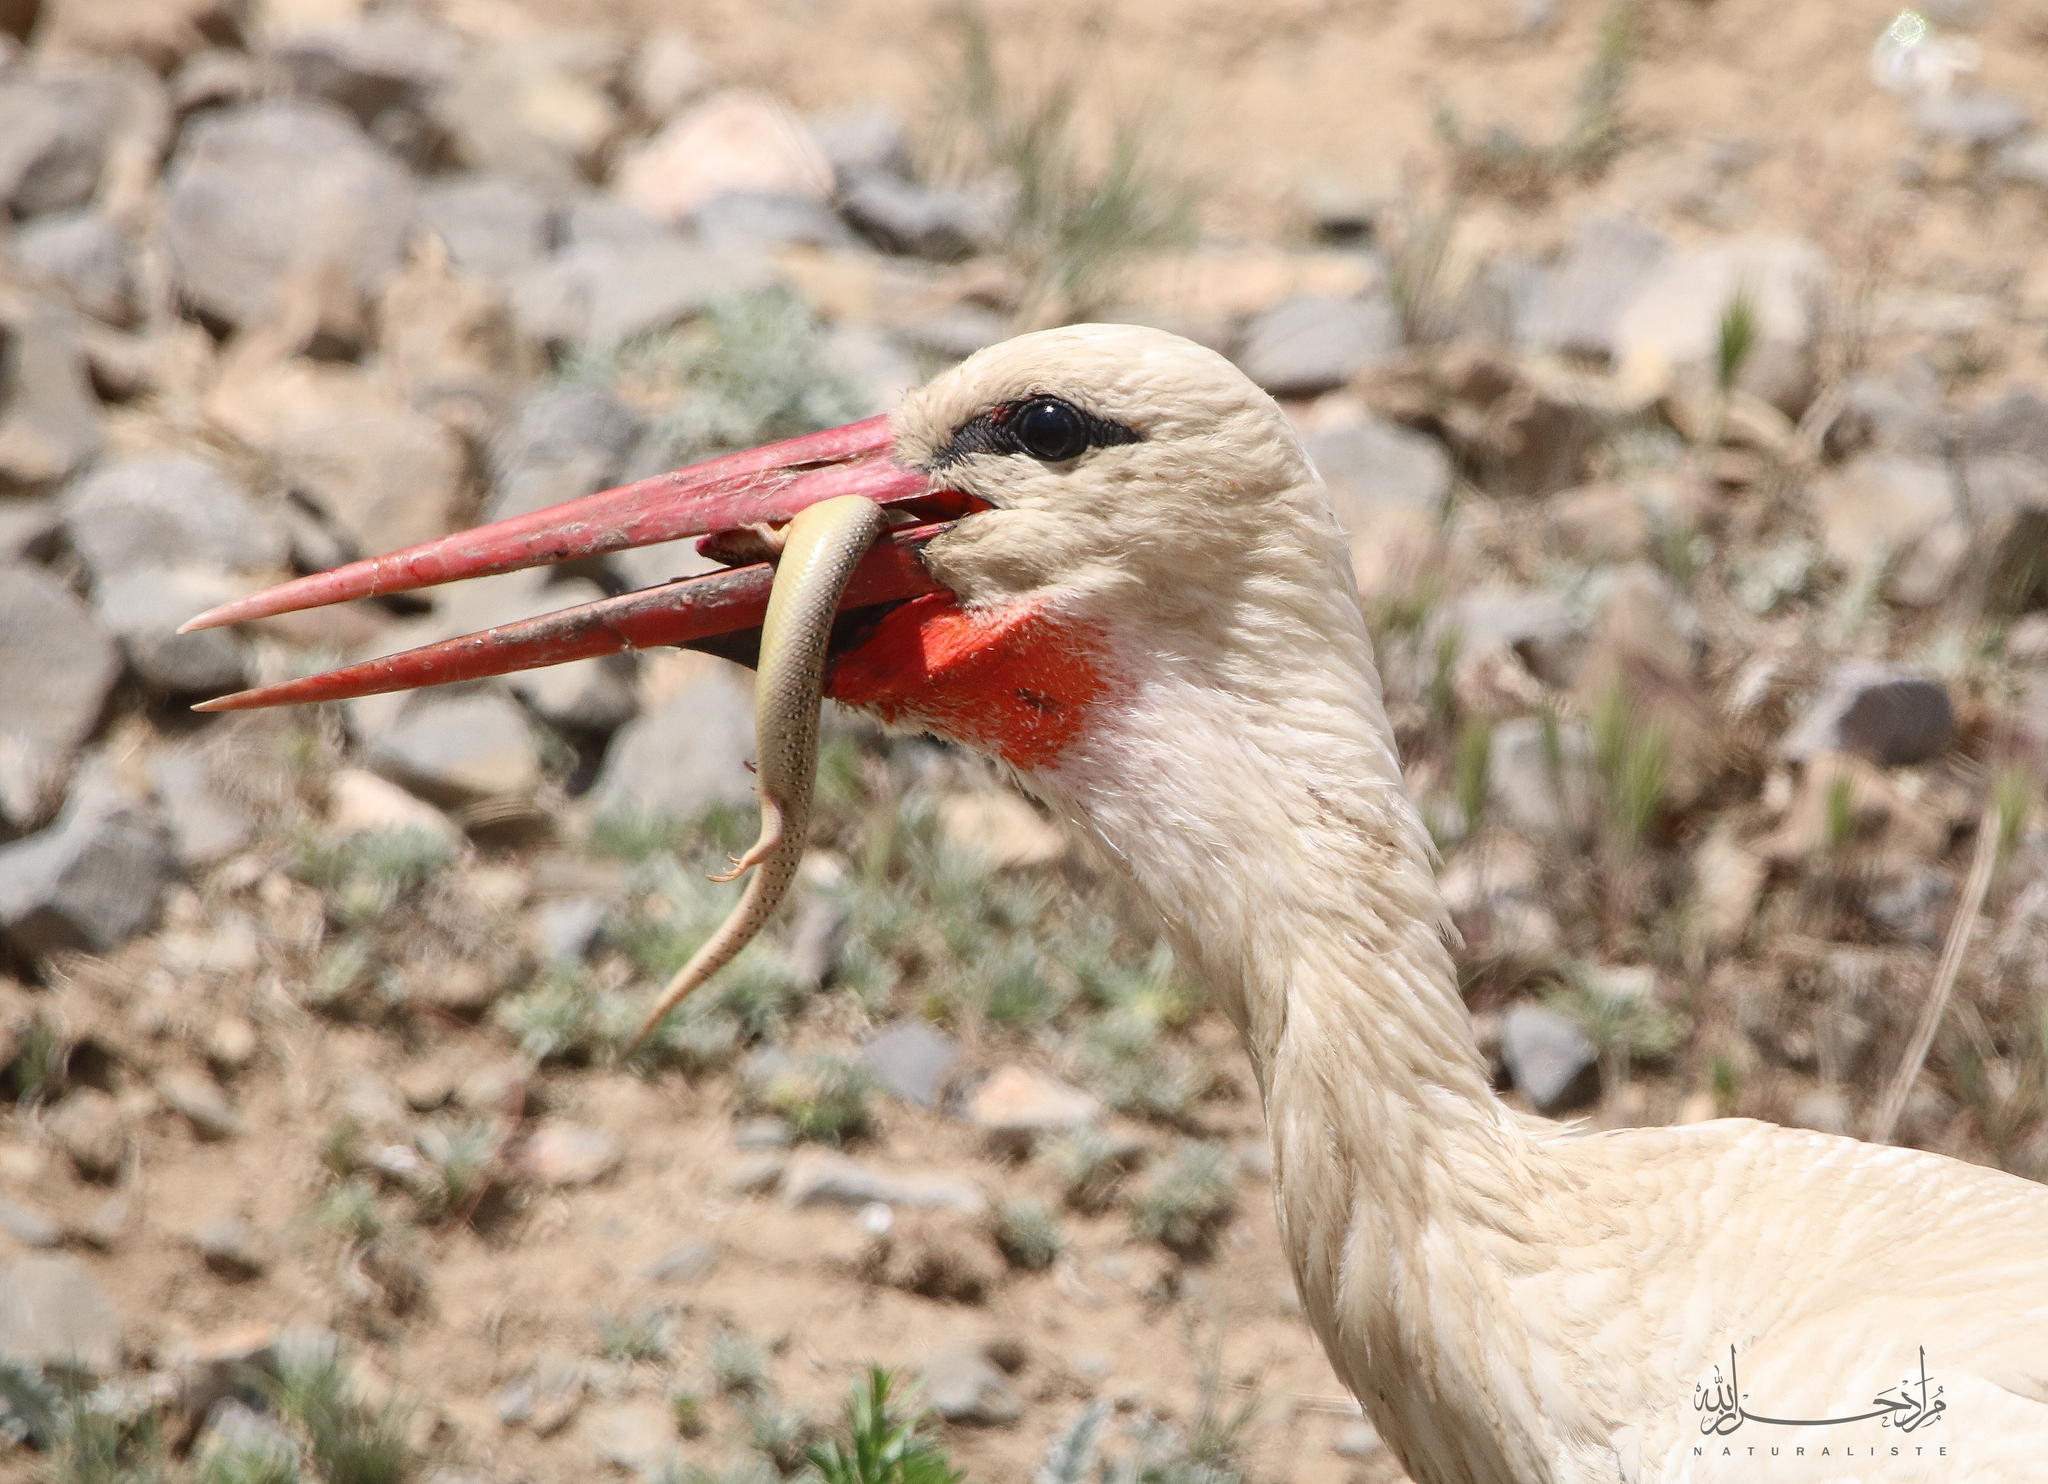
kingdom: Animalia
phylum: Chordata
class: Aves
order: Ciconiiformes
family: Ciconiidae
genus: Ciconia
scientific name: Ciconia ciconia
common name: White stork
